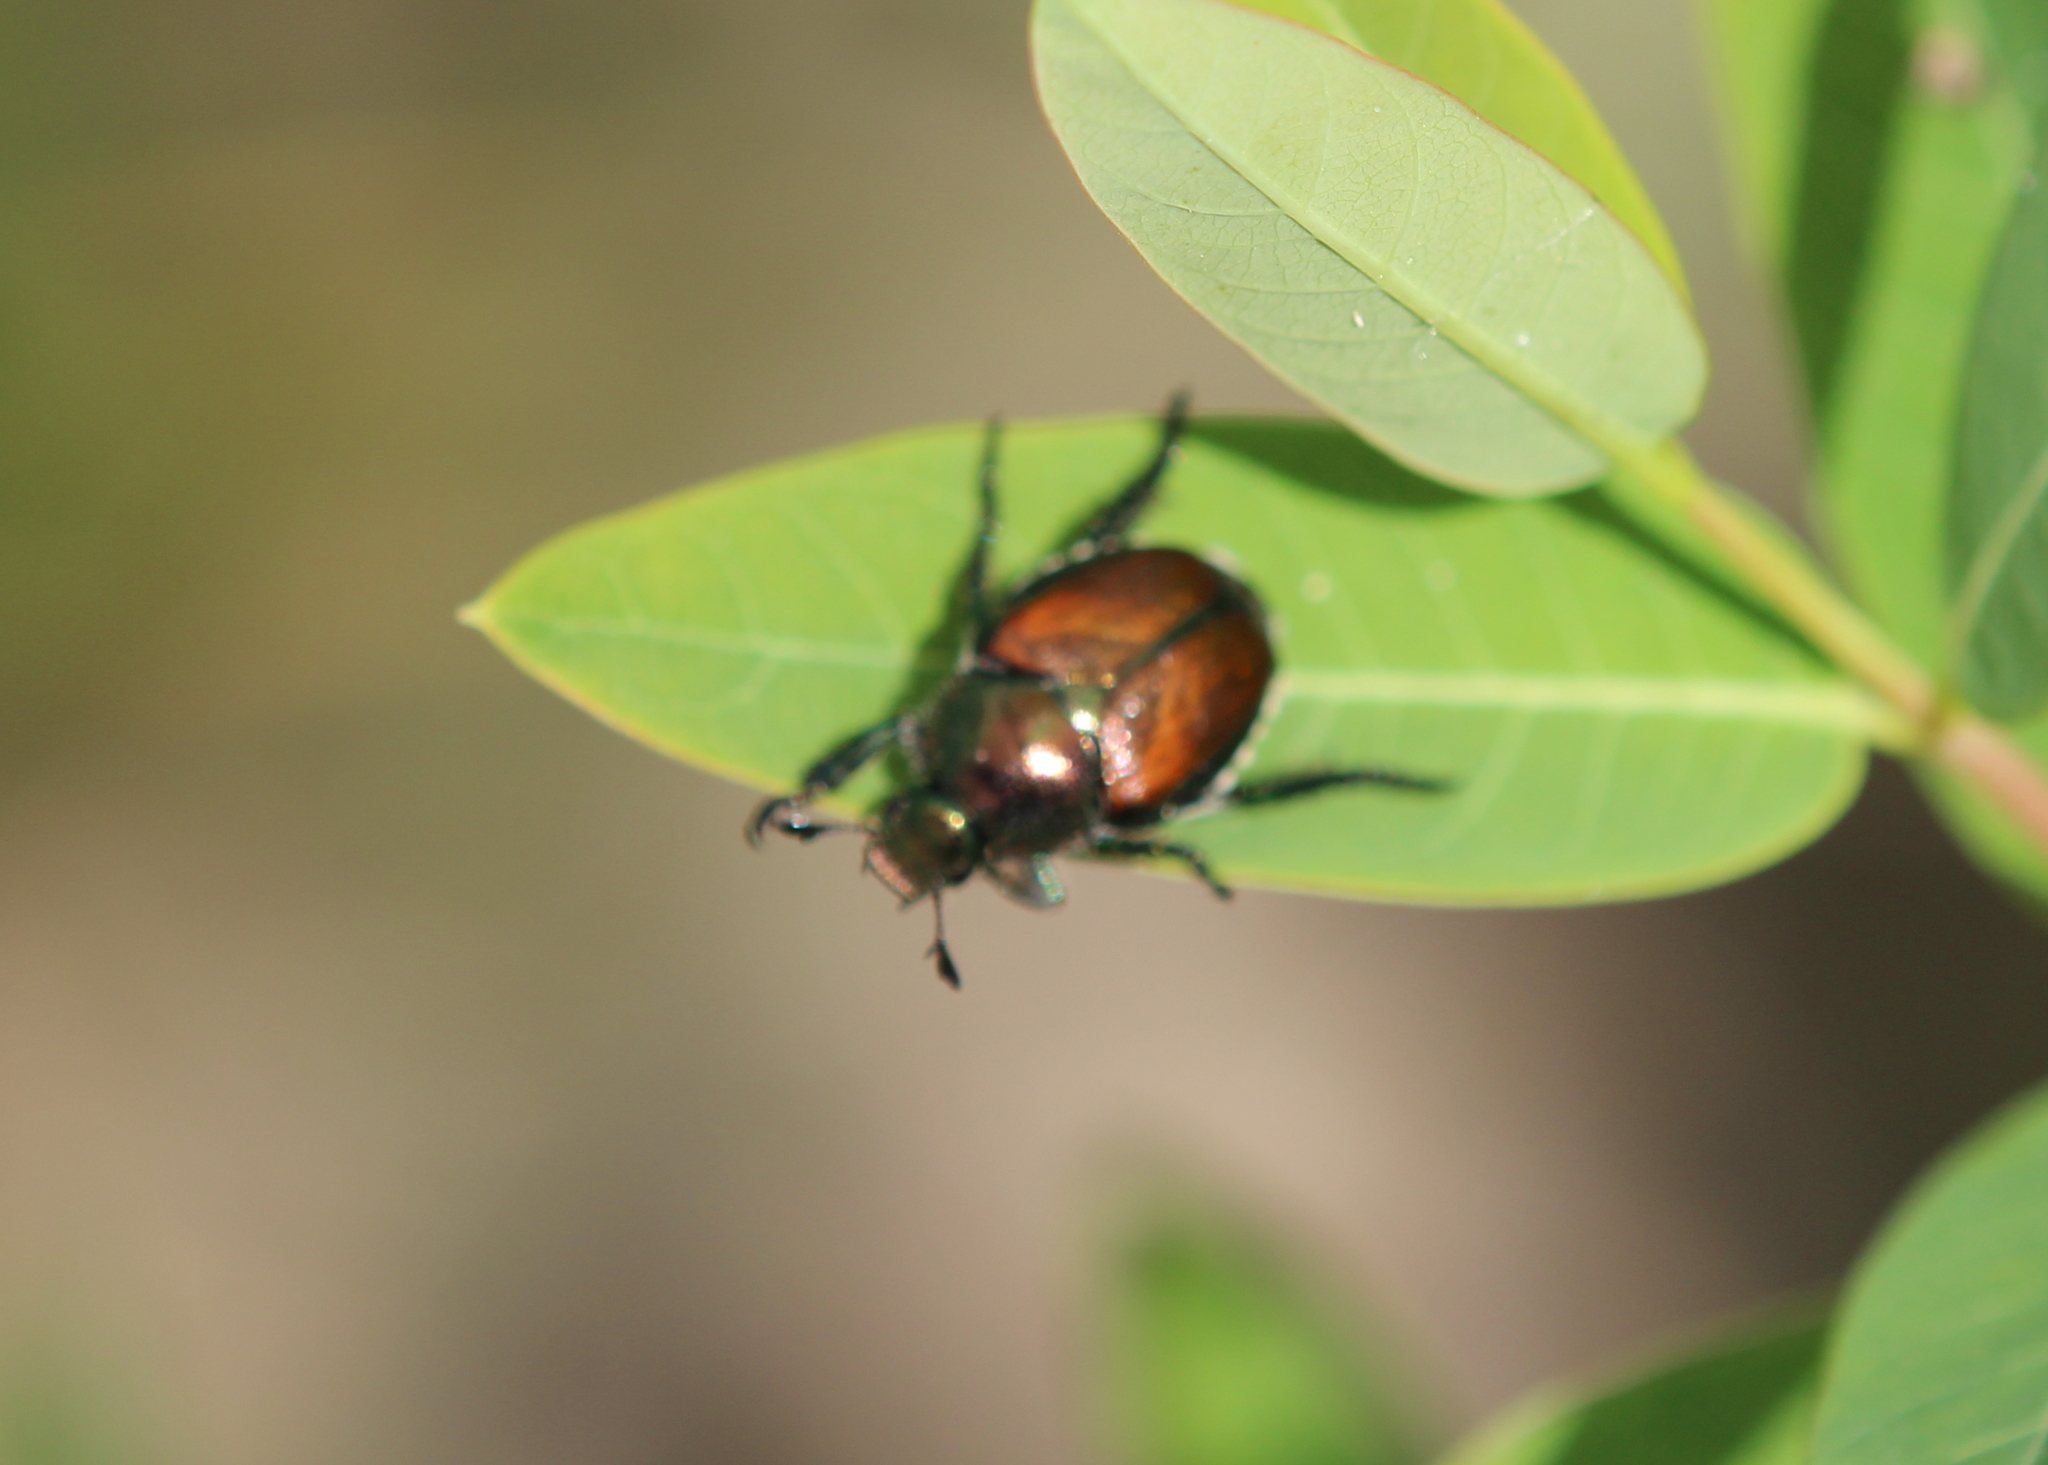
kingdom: Animalia
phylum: Arthropoda
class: Insecta
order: Coleoptera
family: Scarabaeidae
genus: Popillia
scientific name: Popillia japonica
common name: Japanese beetle
